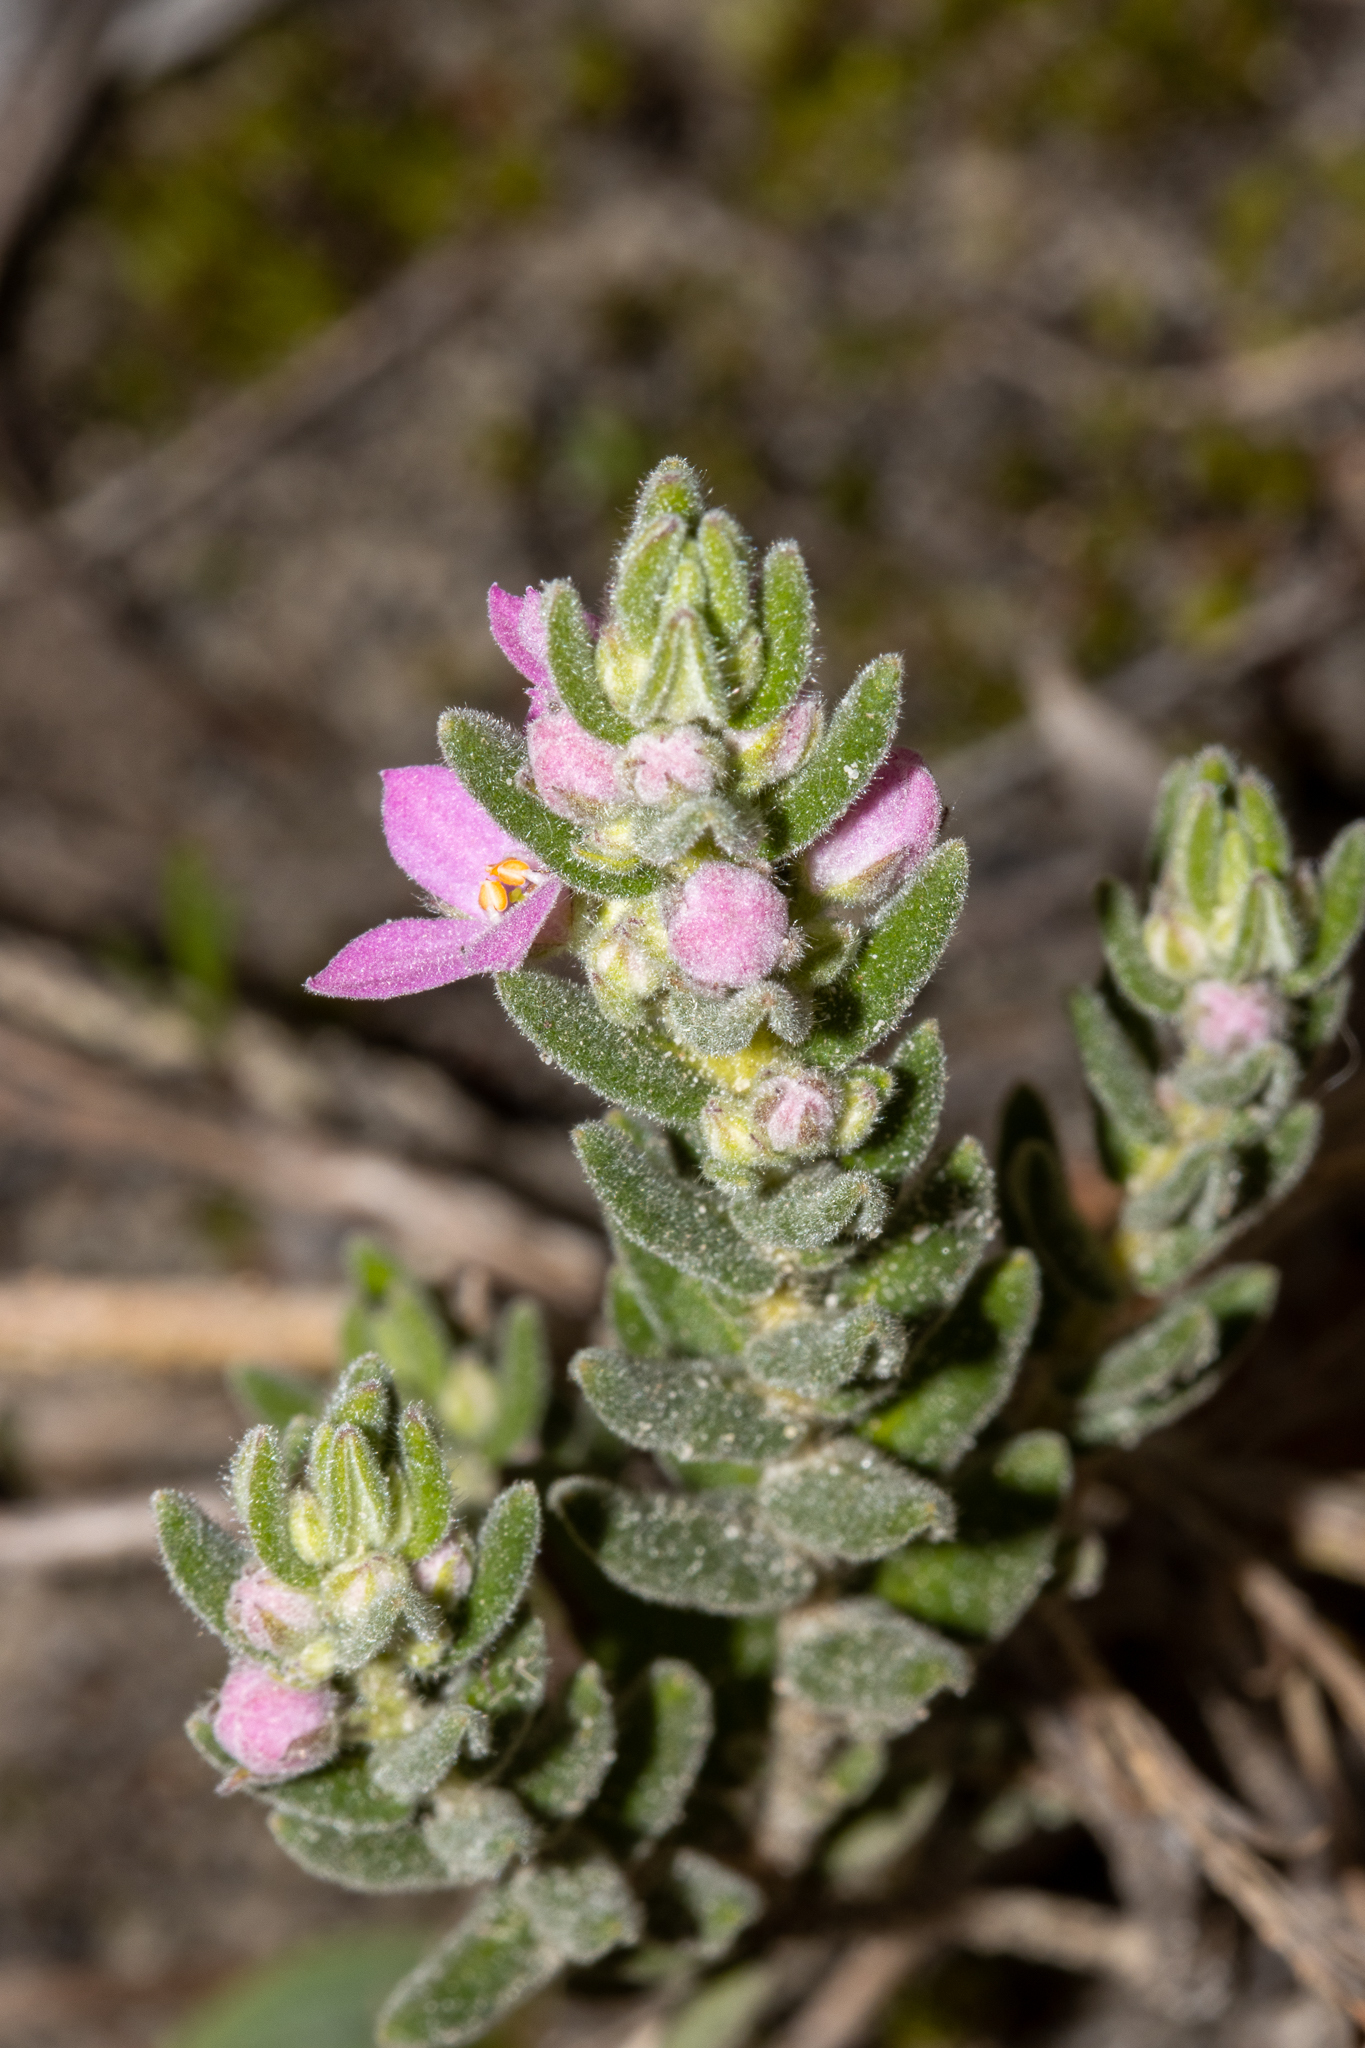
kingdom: Plantae
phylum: Tracheophyta
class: Magnoliopsida
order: Sapindales
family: Rutaceae
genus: Zieria
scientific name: Zieria veronicea
